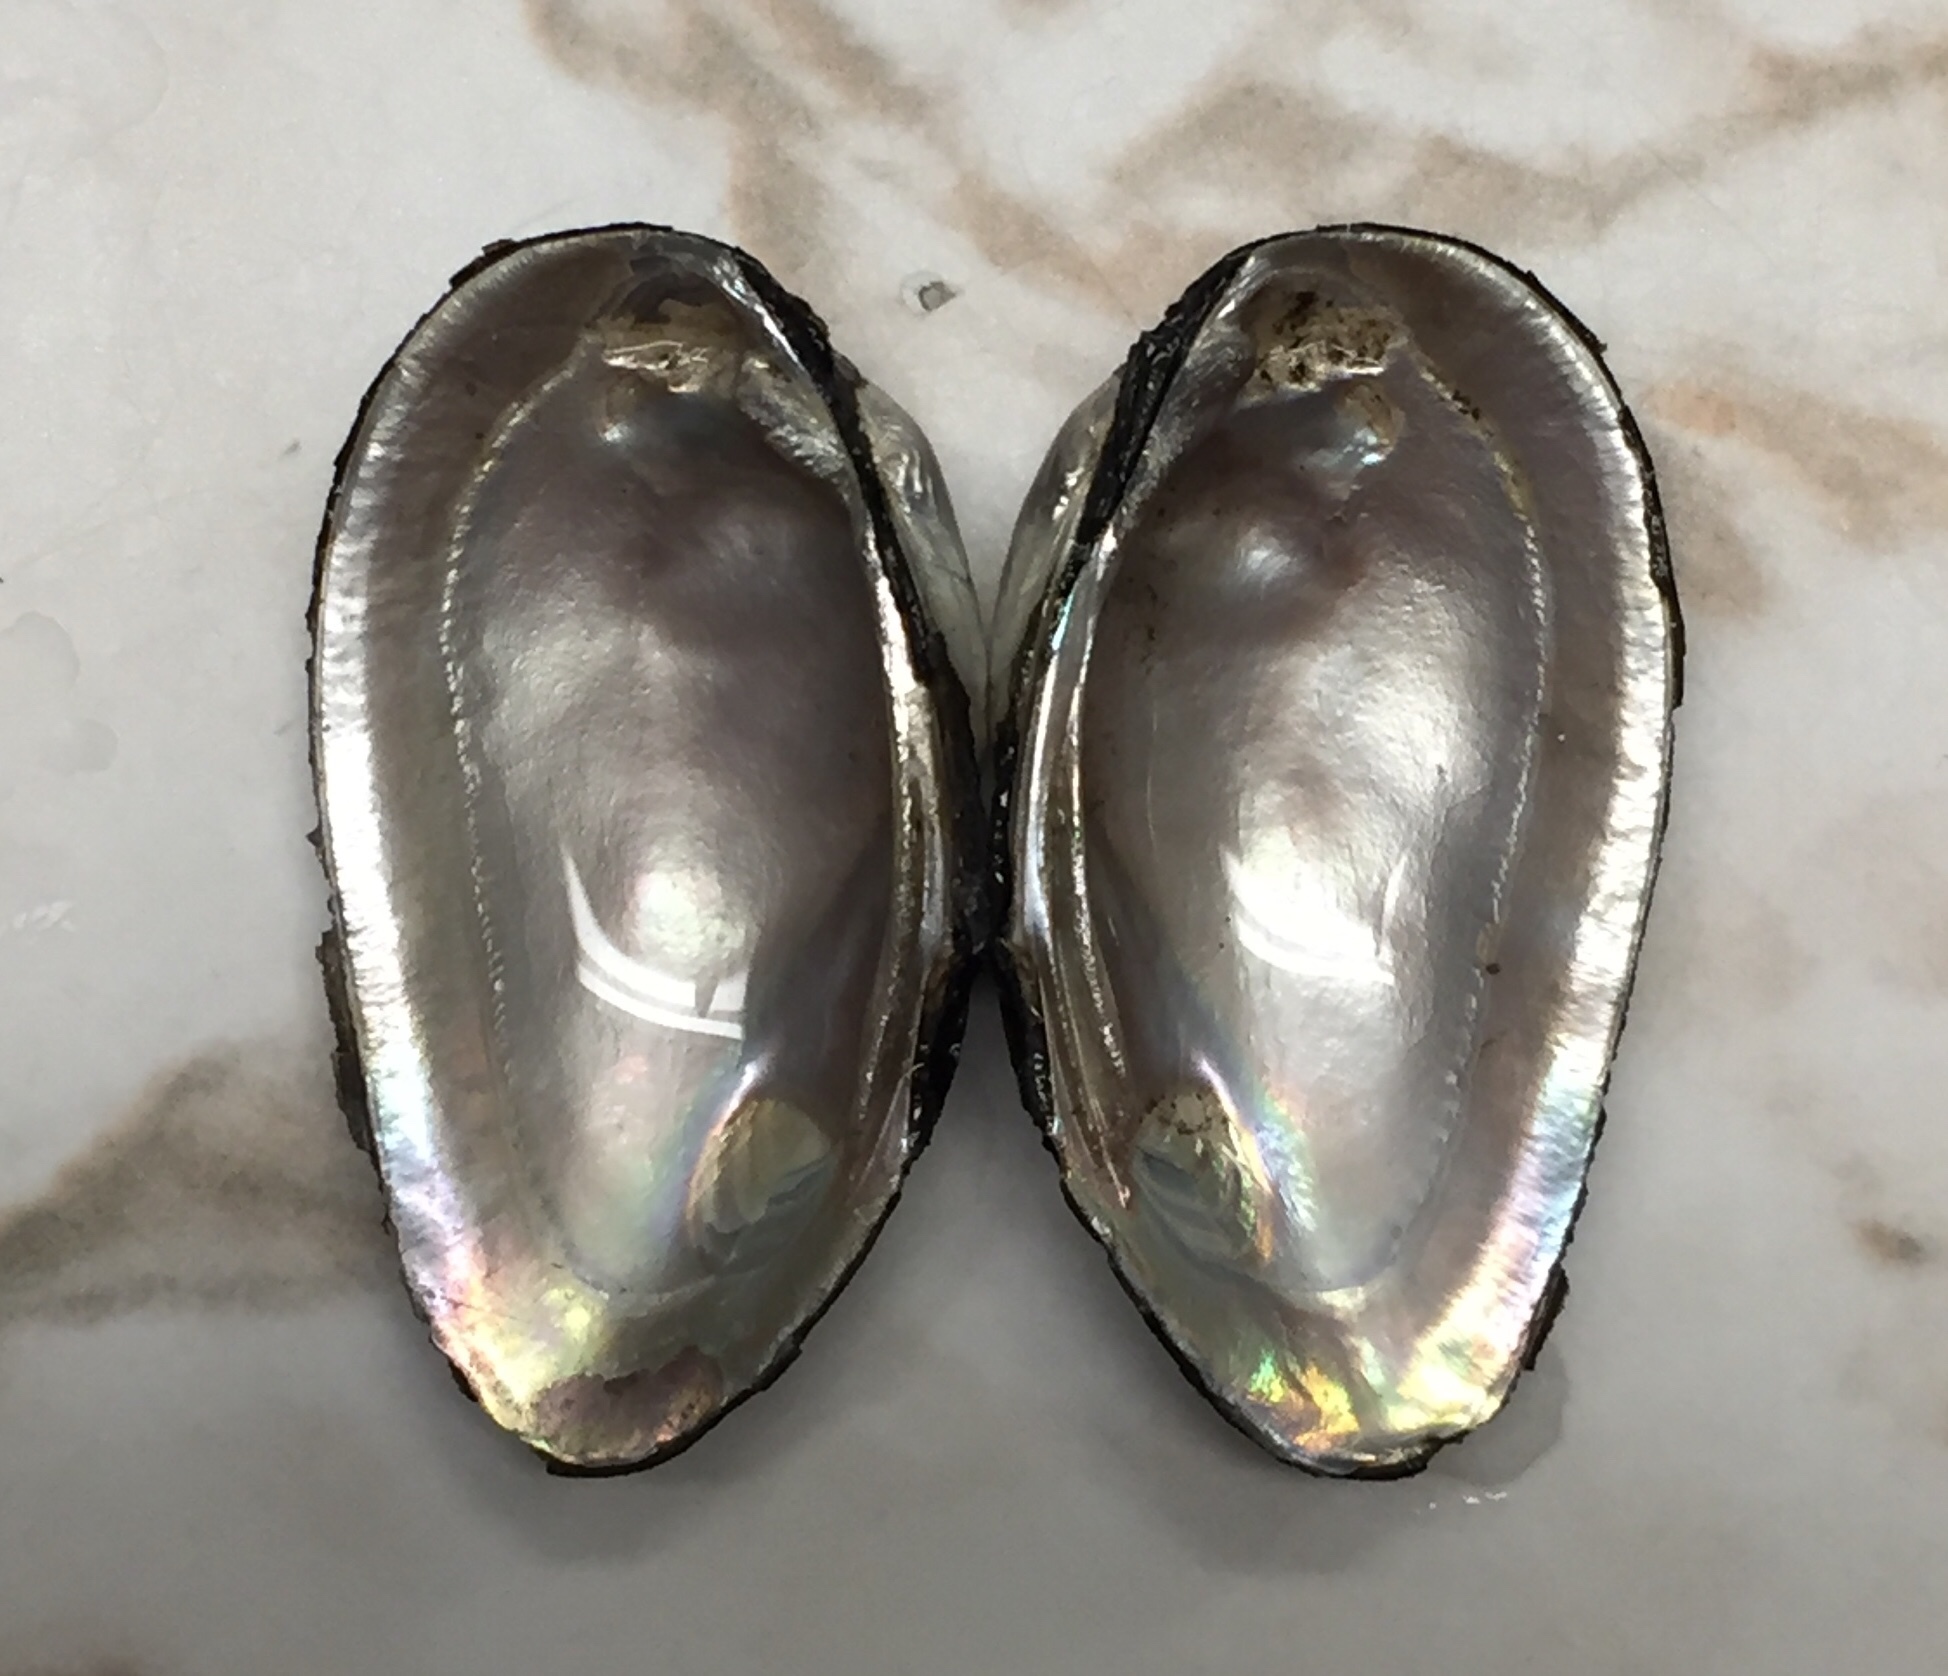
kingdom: Animalia
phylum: Mollusca
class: Bivalvia
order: Unionida
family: Unionidae
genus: Elliptio
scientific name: Elliptio jayensis
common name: Florida spike
